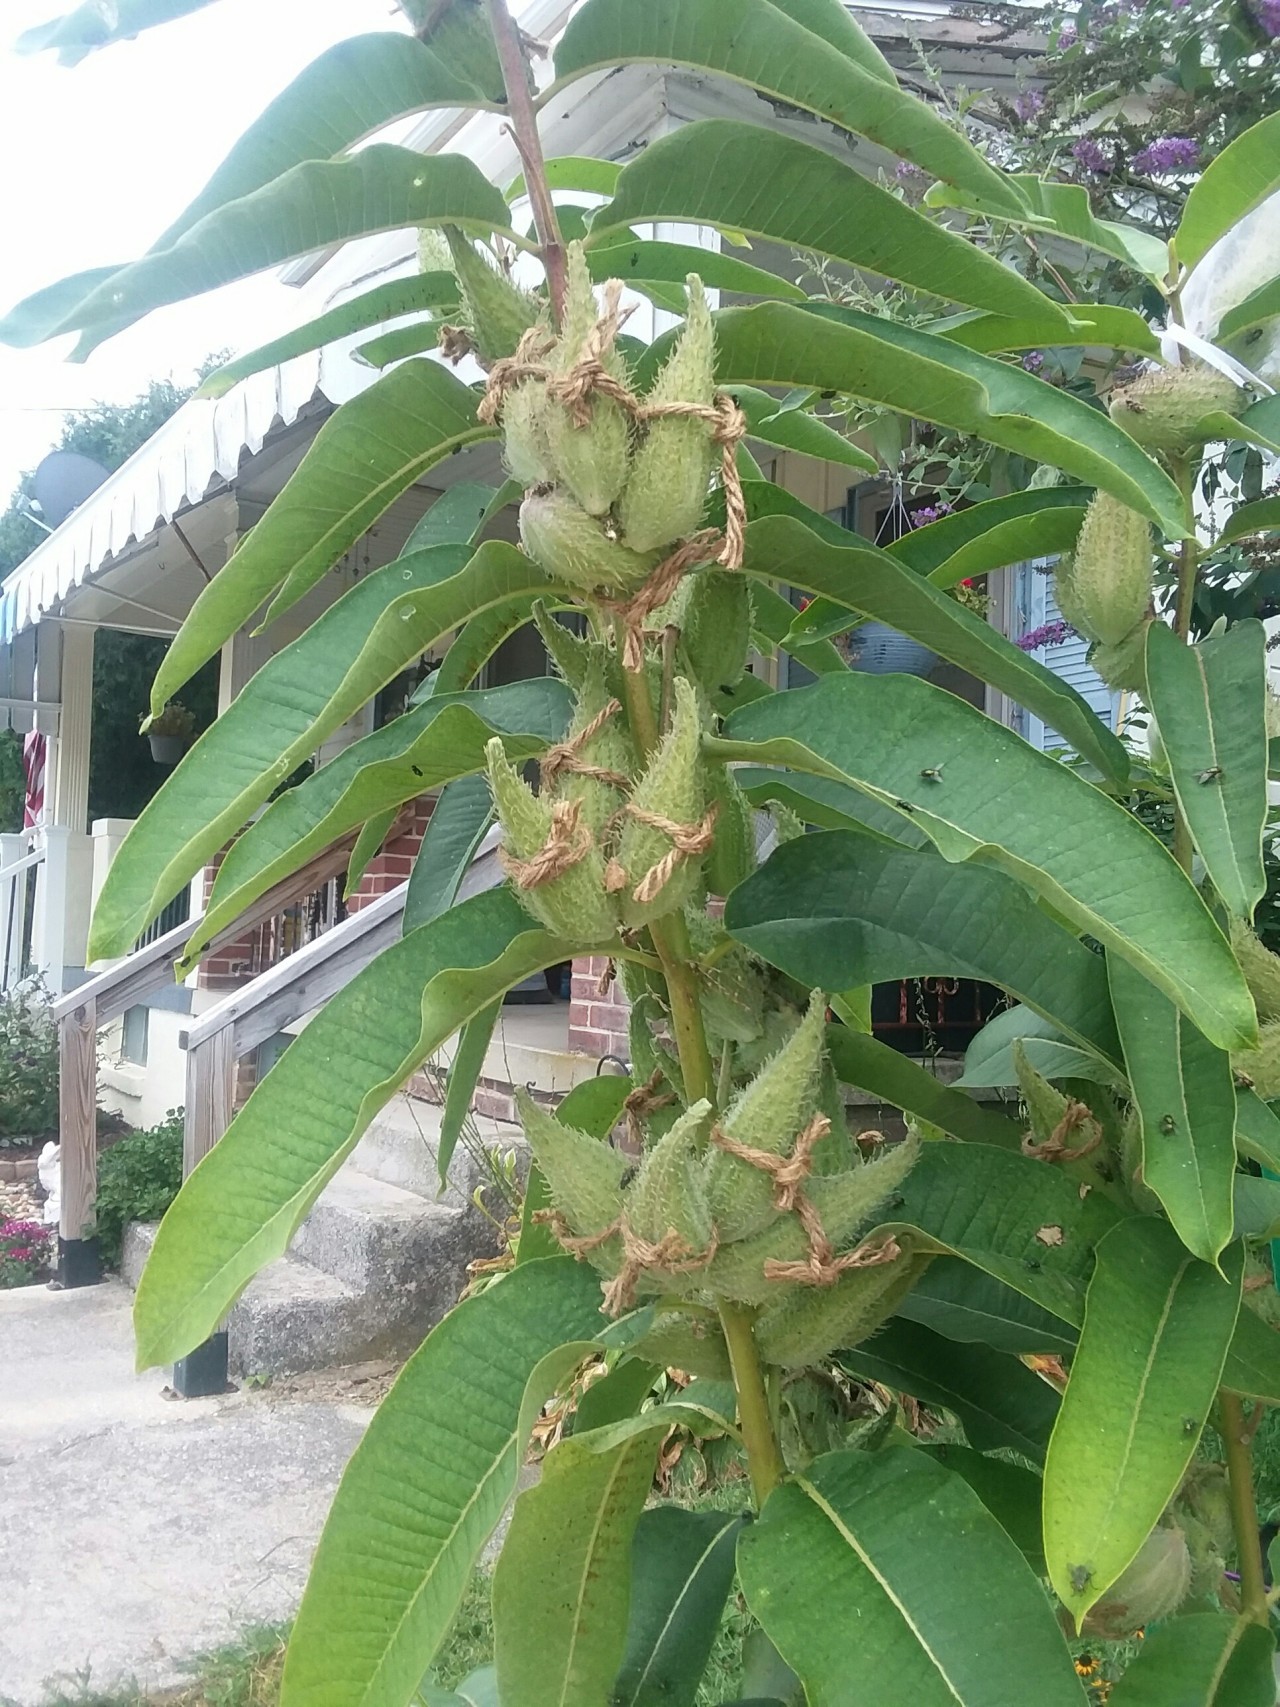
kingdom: Plantae
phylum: Tracheophyta
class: Magnoliopsida
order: Gentianales
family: Apocynaceae
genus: Asclepias
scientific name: Asclepias syriaca
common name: Common milkweed
